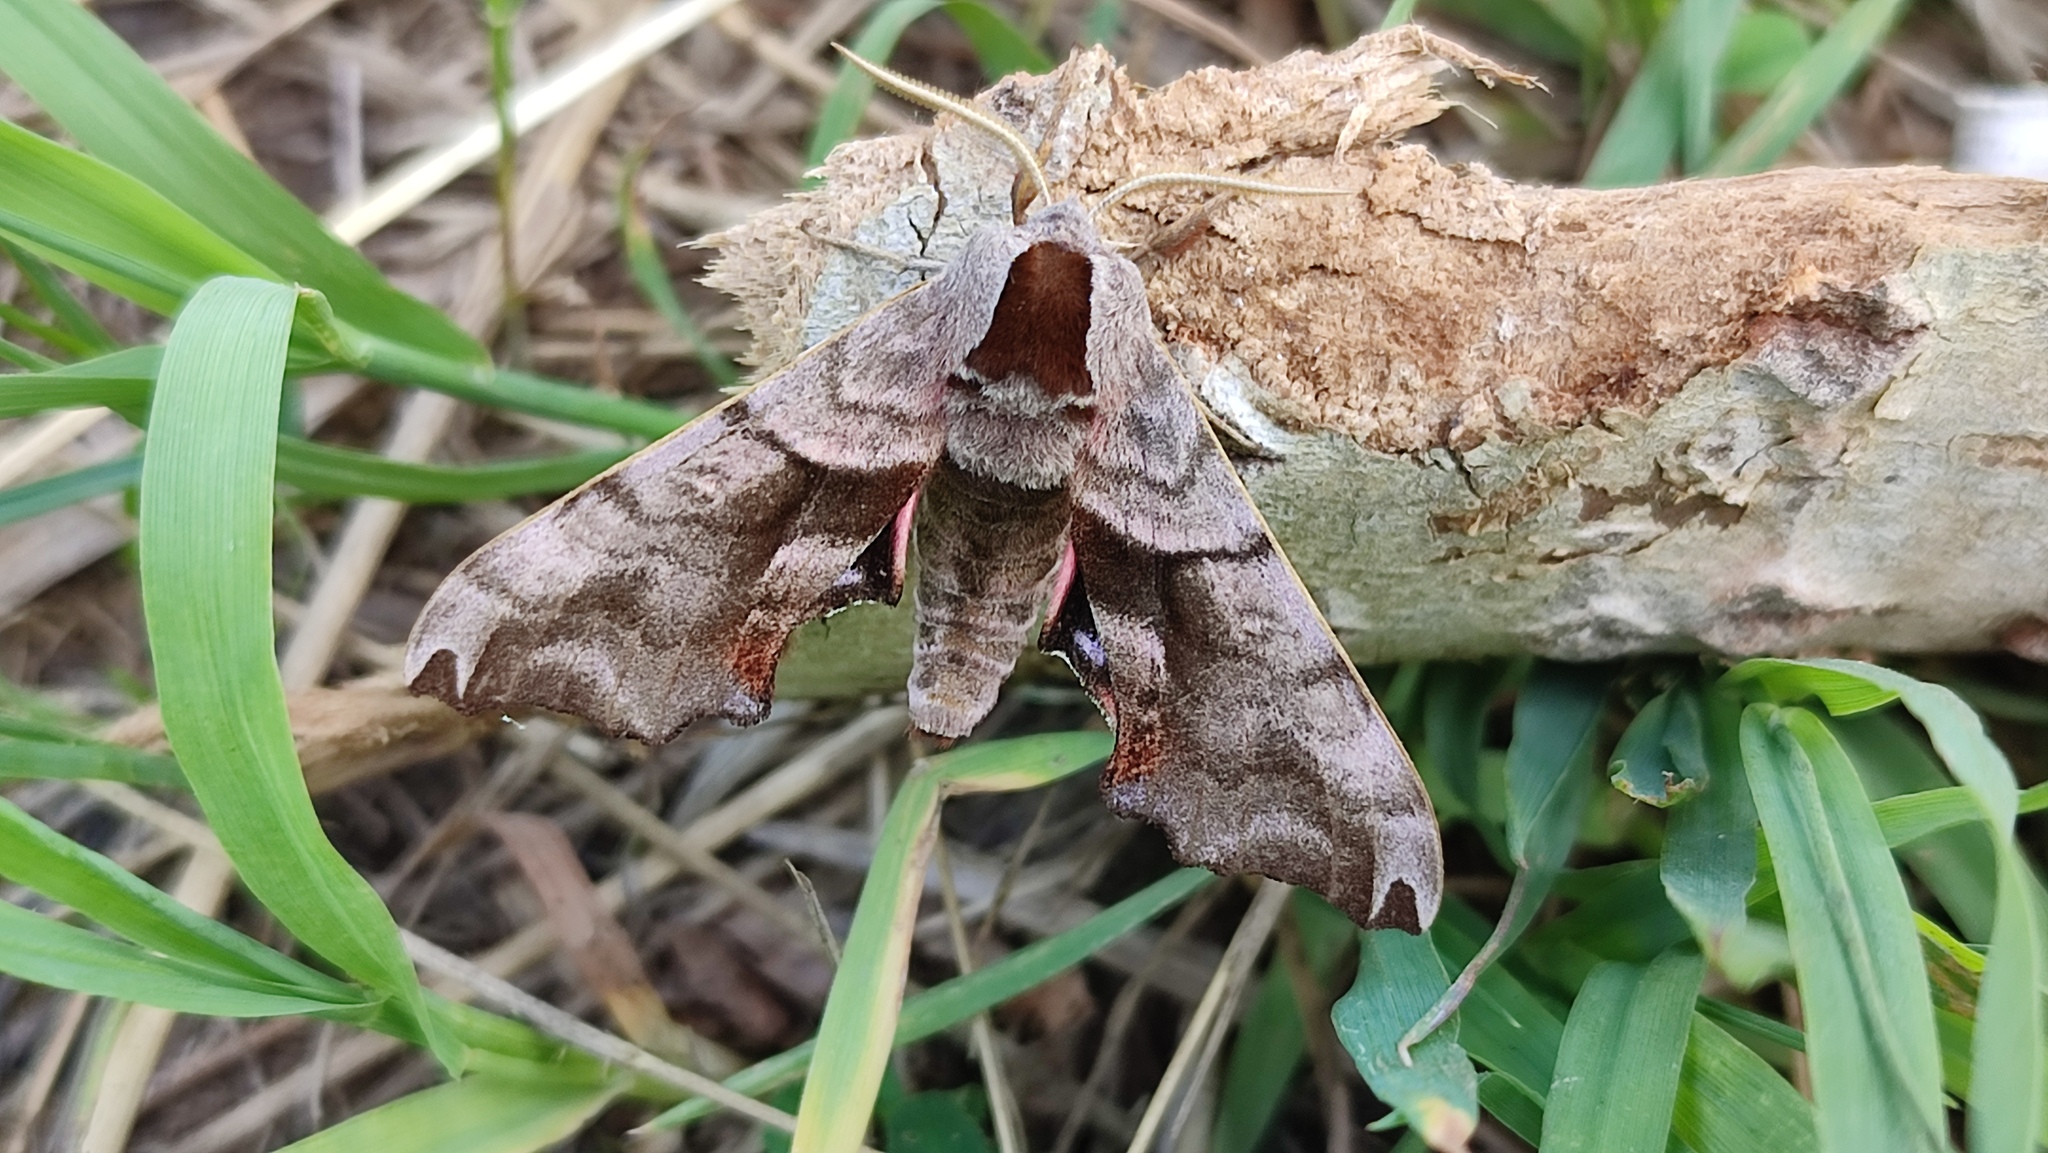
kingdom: Animalia
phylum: Arthropoda
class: Insecta
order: Lepidoptera
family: Sphingidae
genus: Smerinthus
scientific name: Smerinthus caecus
